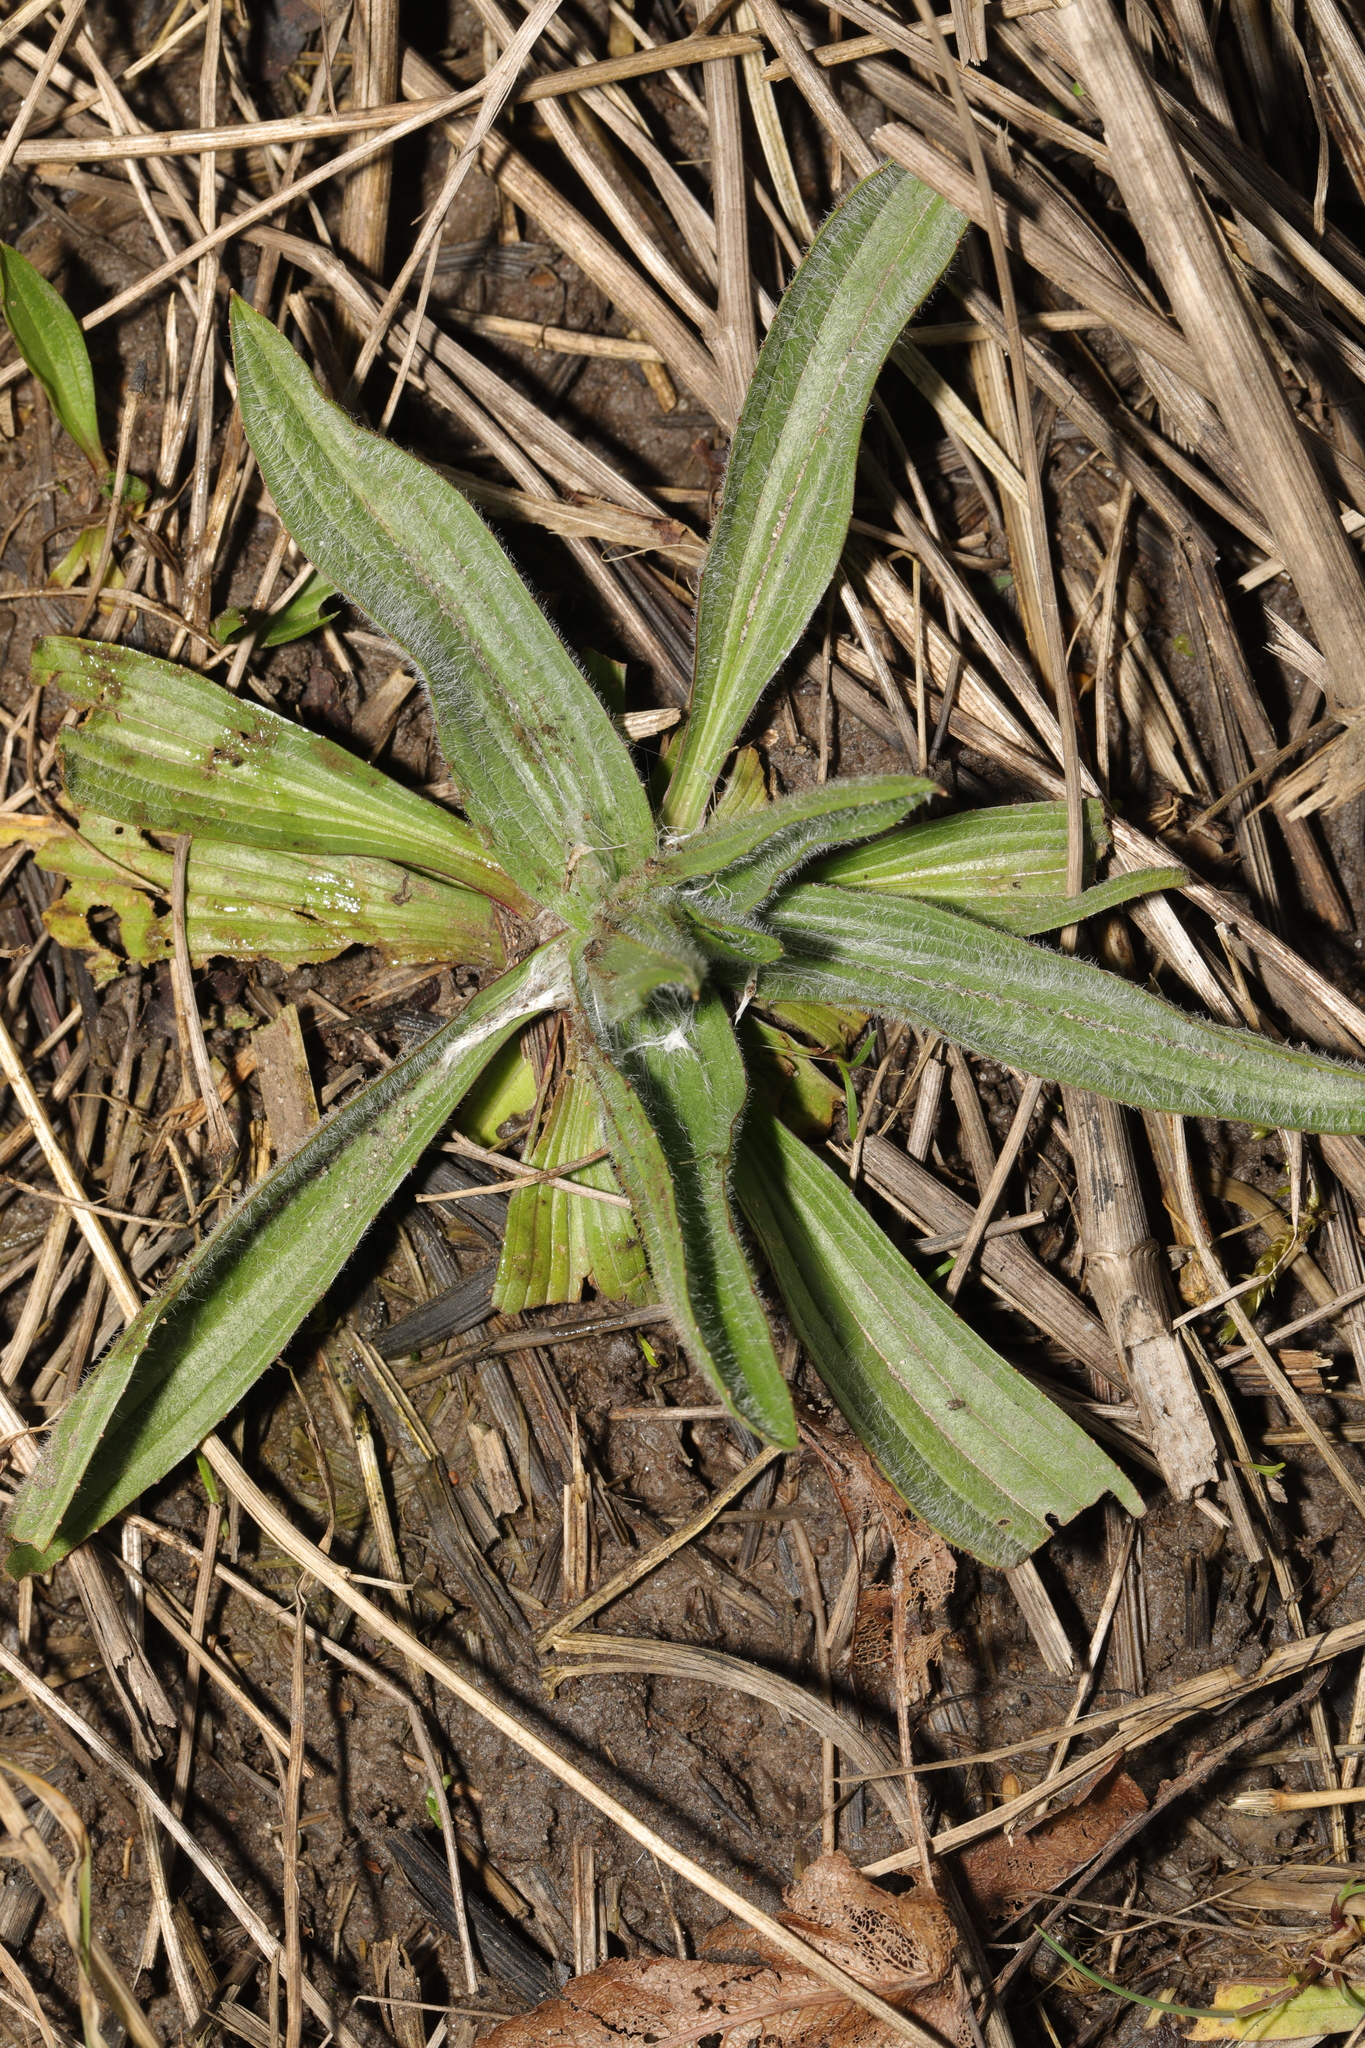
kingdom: Plantae
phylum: Tracheophyta
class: Magnoliopsida
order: Lamiales
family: Plantaginaceae
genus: Plantago
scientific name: Plantago lanceolata
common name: Ribwort plantain
